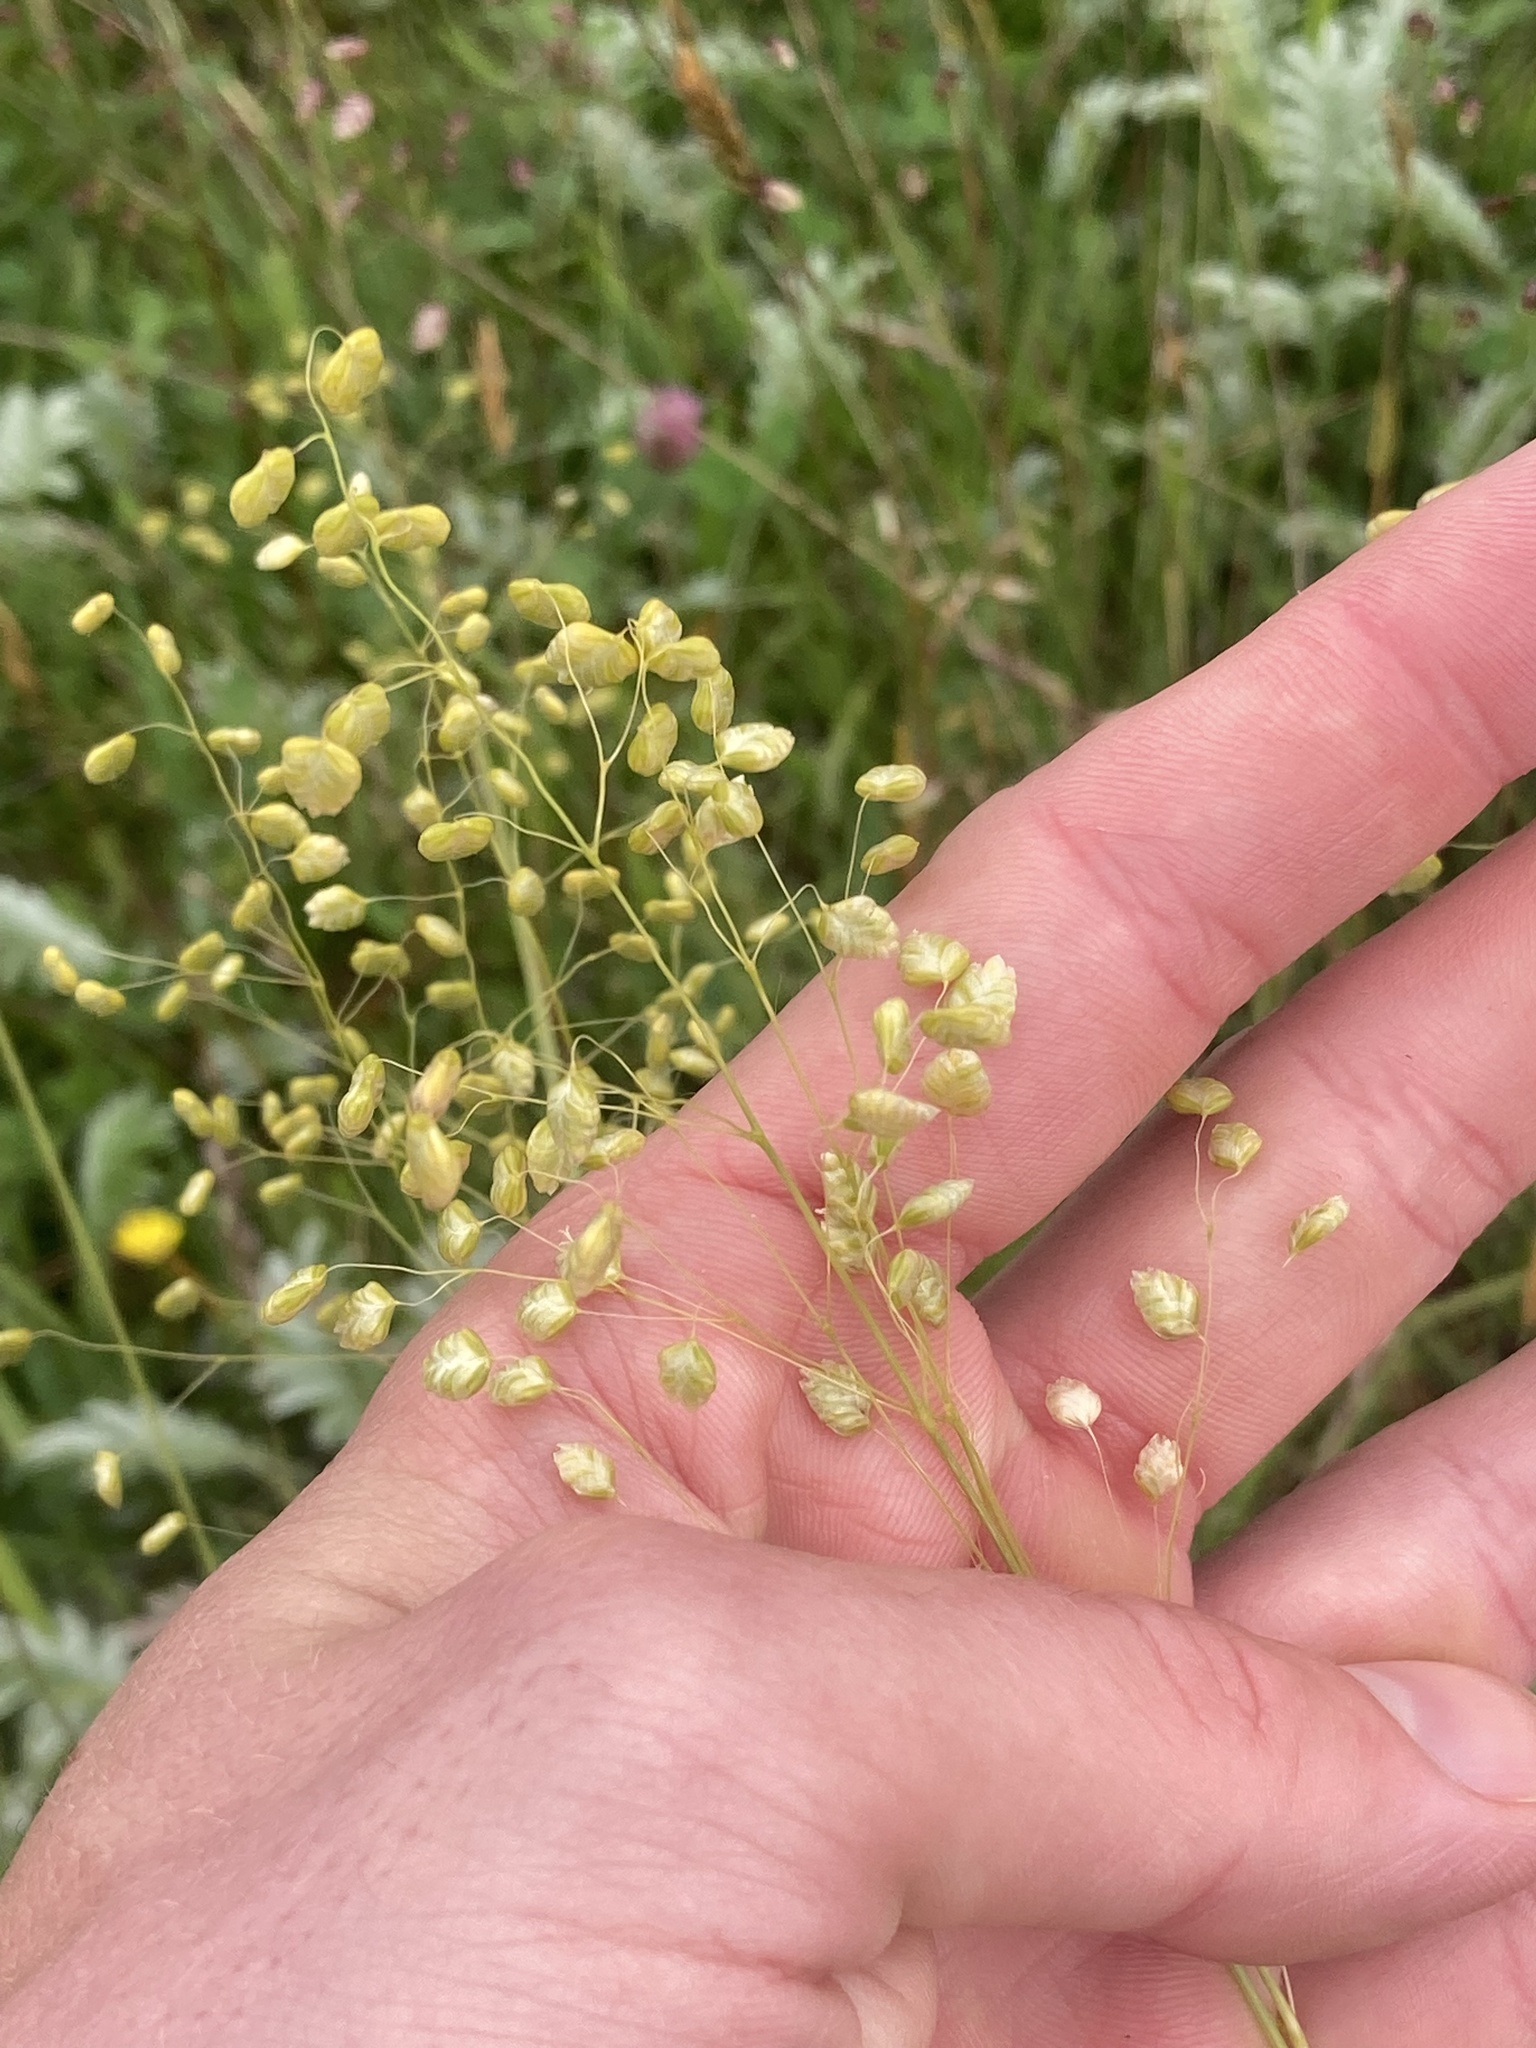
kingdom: Plantae
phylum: Tracheophyta
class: Liliopsida
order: Poales
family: Poaceae
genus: Briza
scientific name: Briza media
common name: Quaking grass
